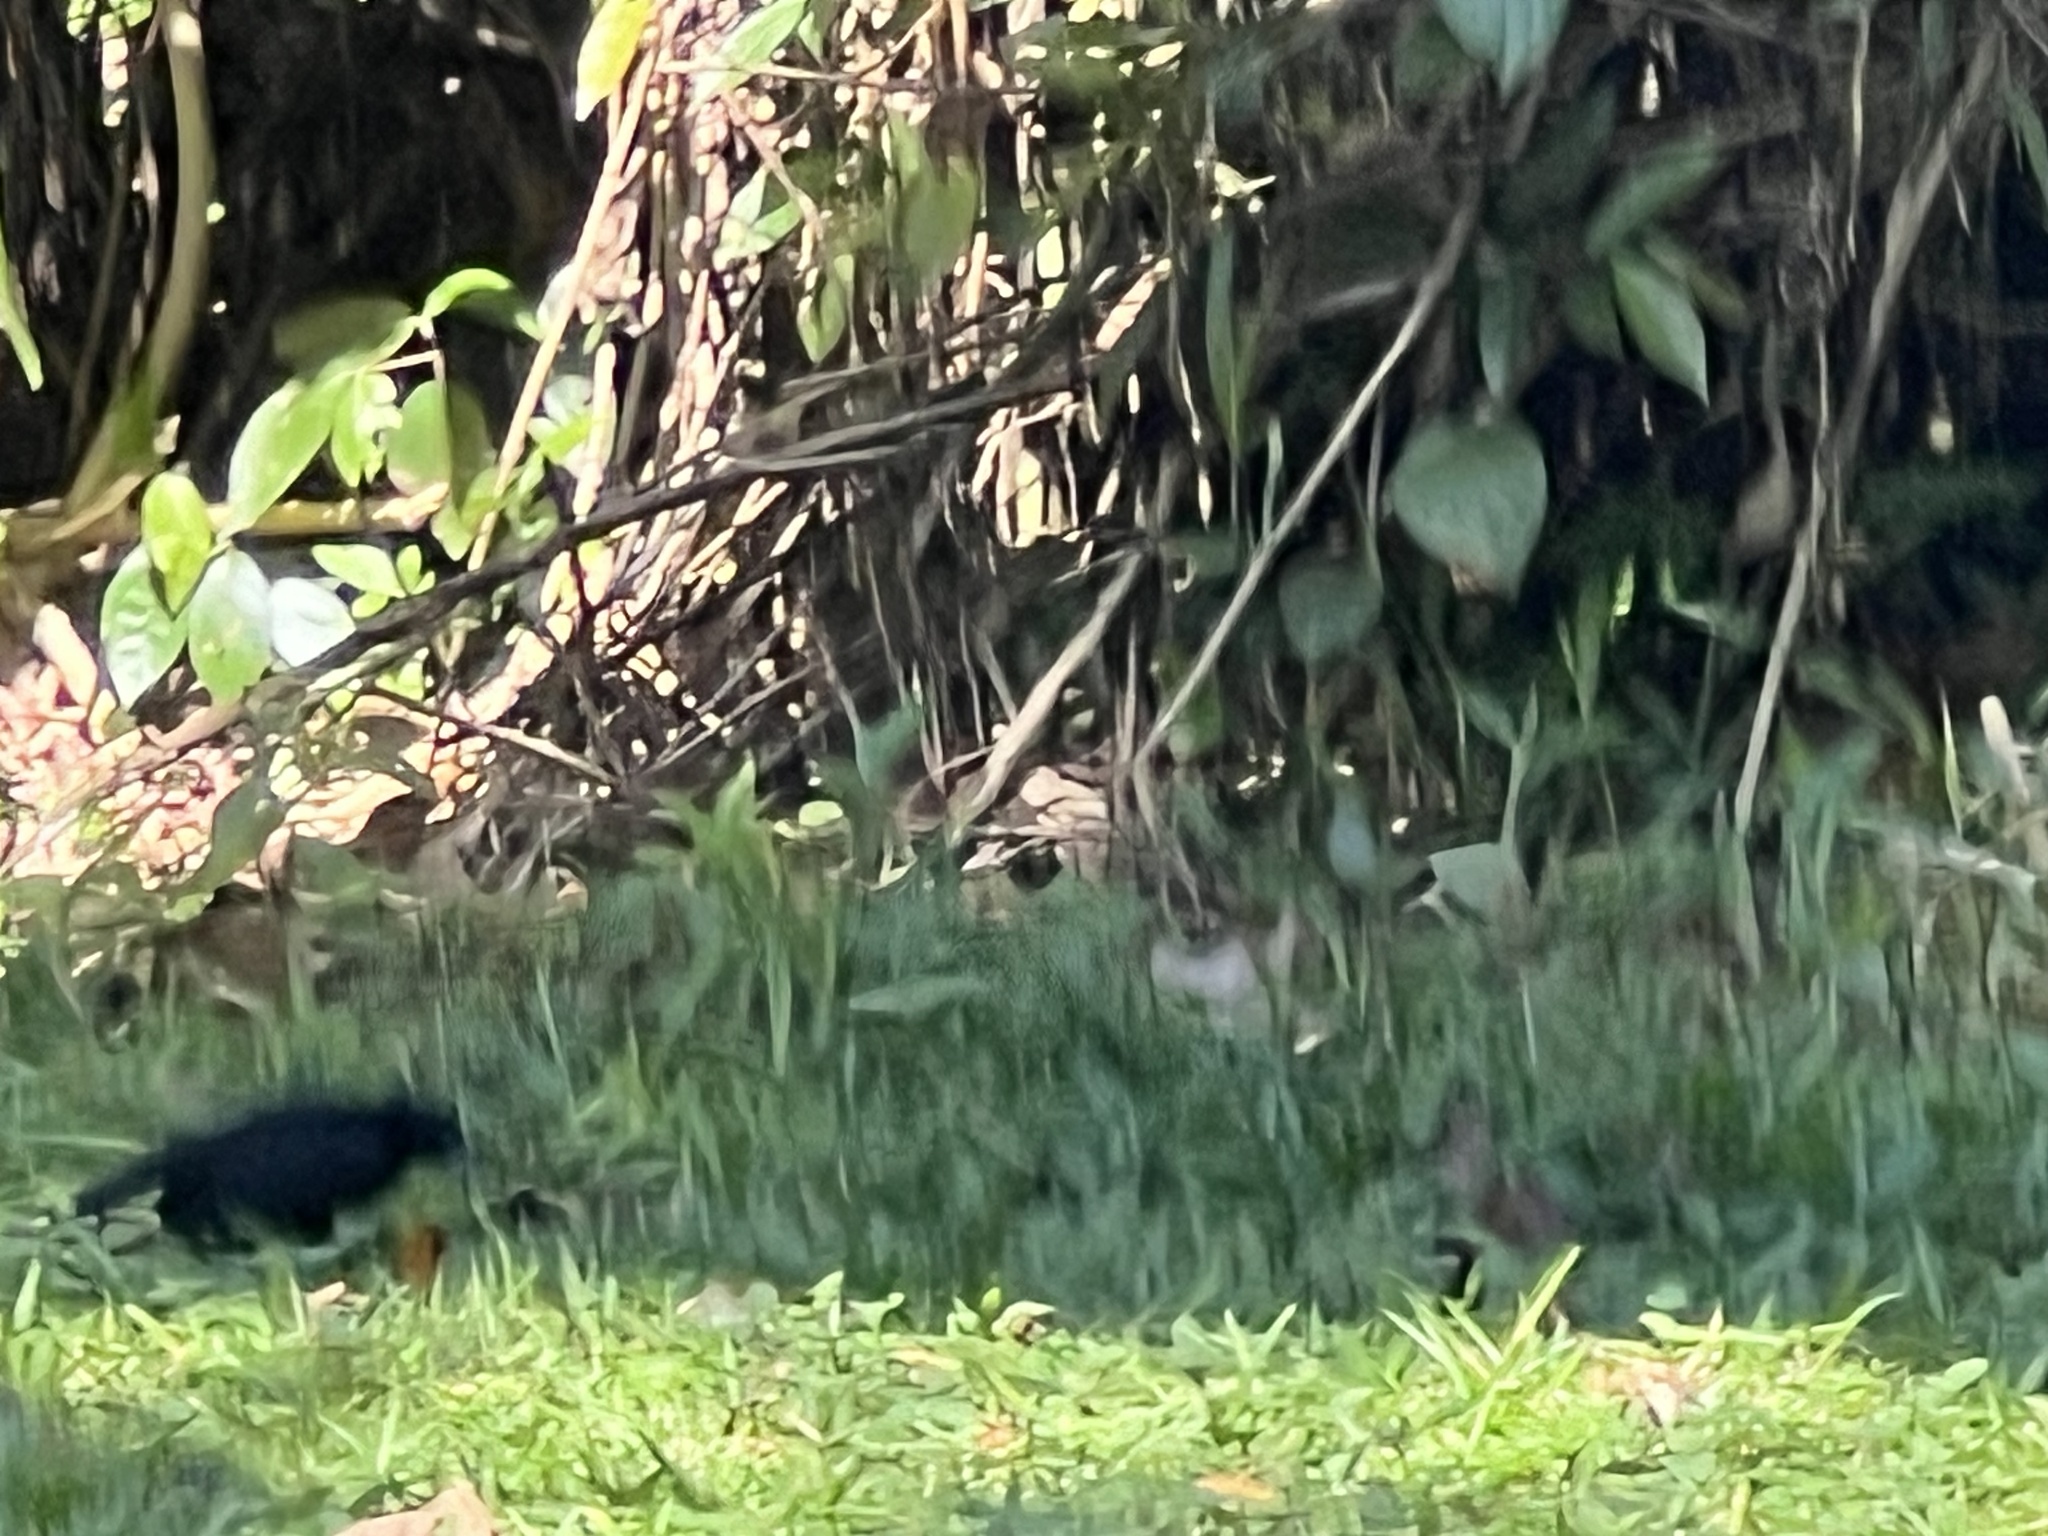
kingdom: Animalia
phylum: Chordata
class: Aves
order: Passeriformes
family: Icteridae
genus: Dives
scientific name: Dives dives
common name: Melodious blackbird
